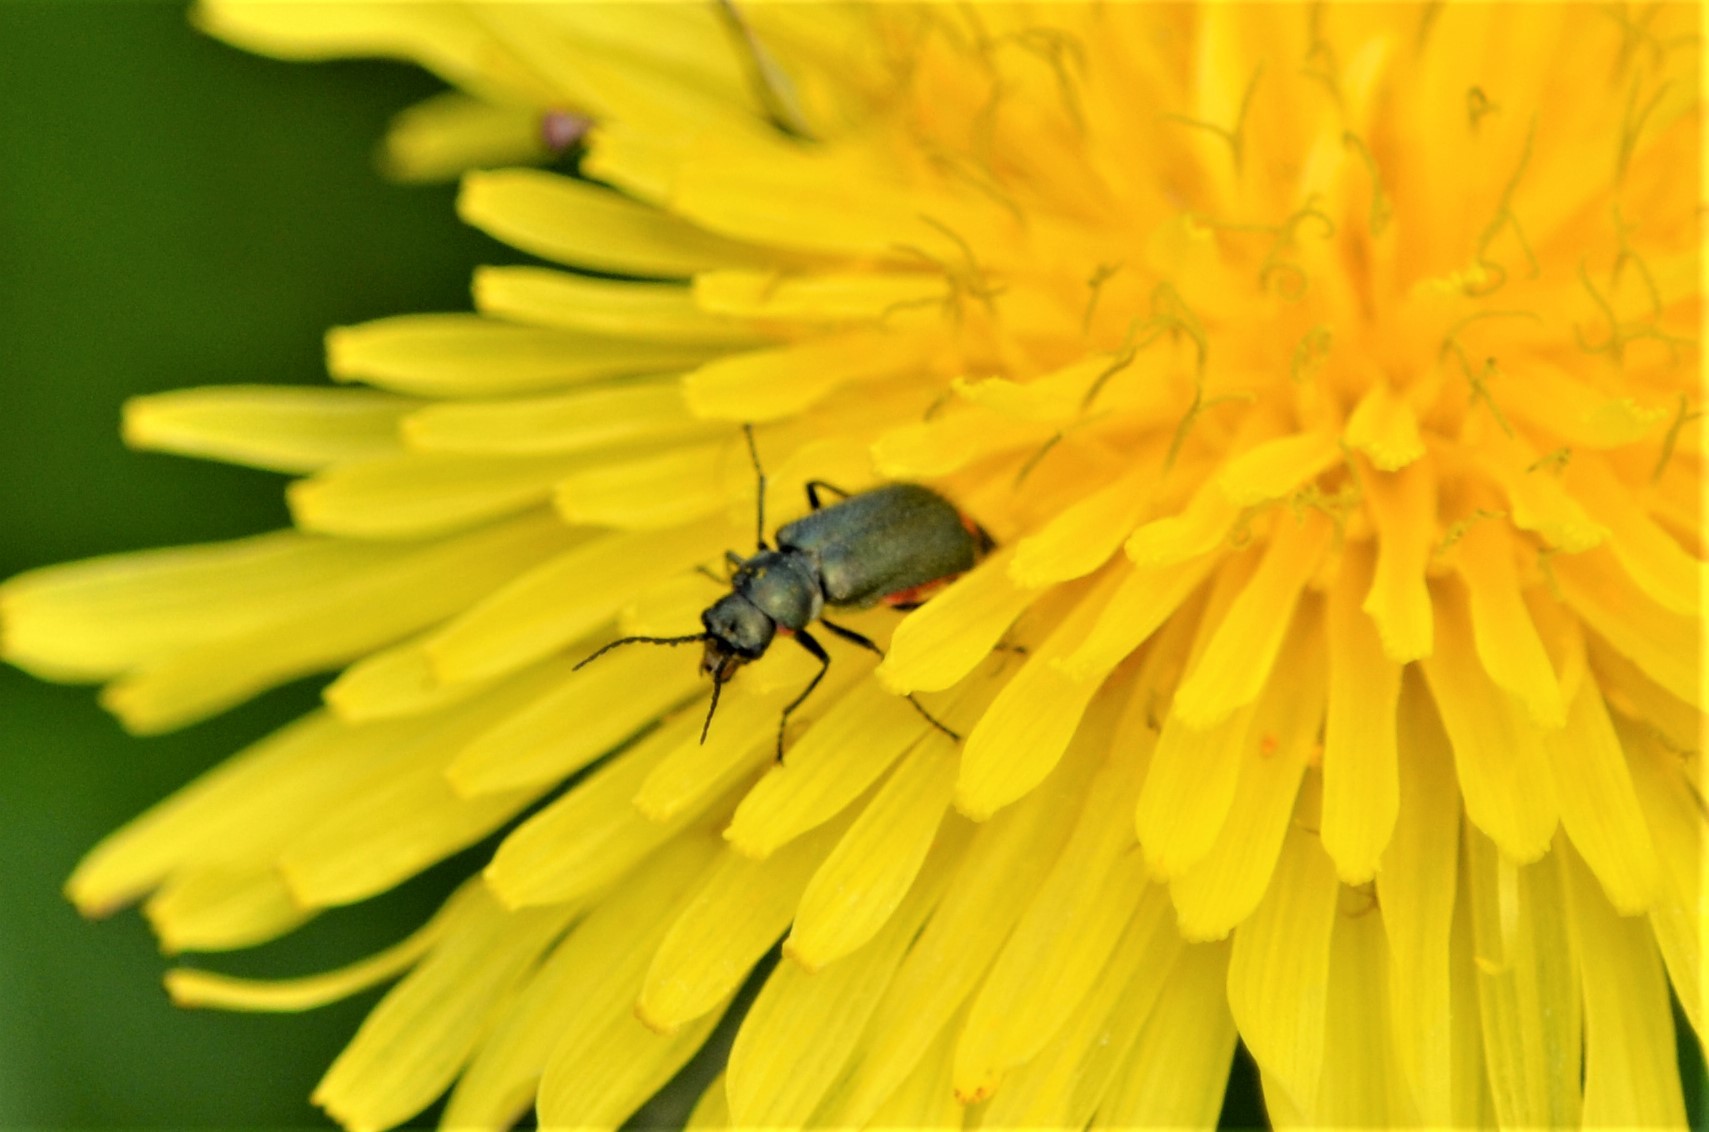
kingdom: Animalia
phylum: Arthropoda
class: Insecta
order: Coleoptera
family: Melyridae
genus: Malachius
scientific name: Malachius bipustulatus
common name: Malachite beetle
